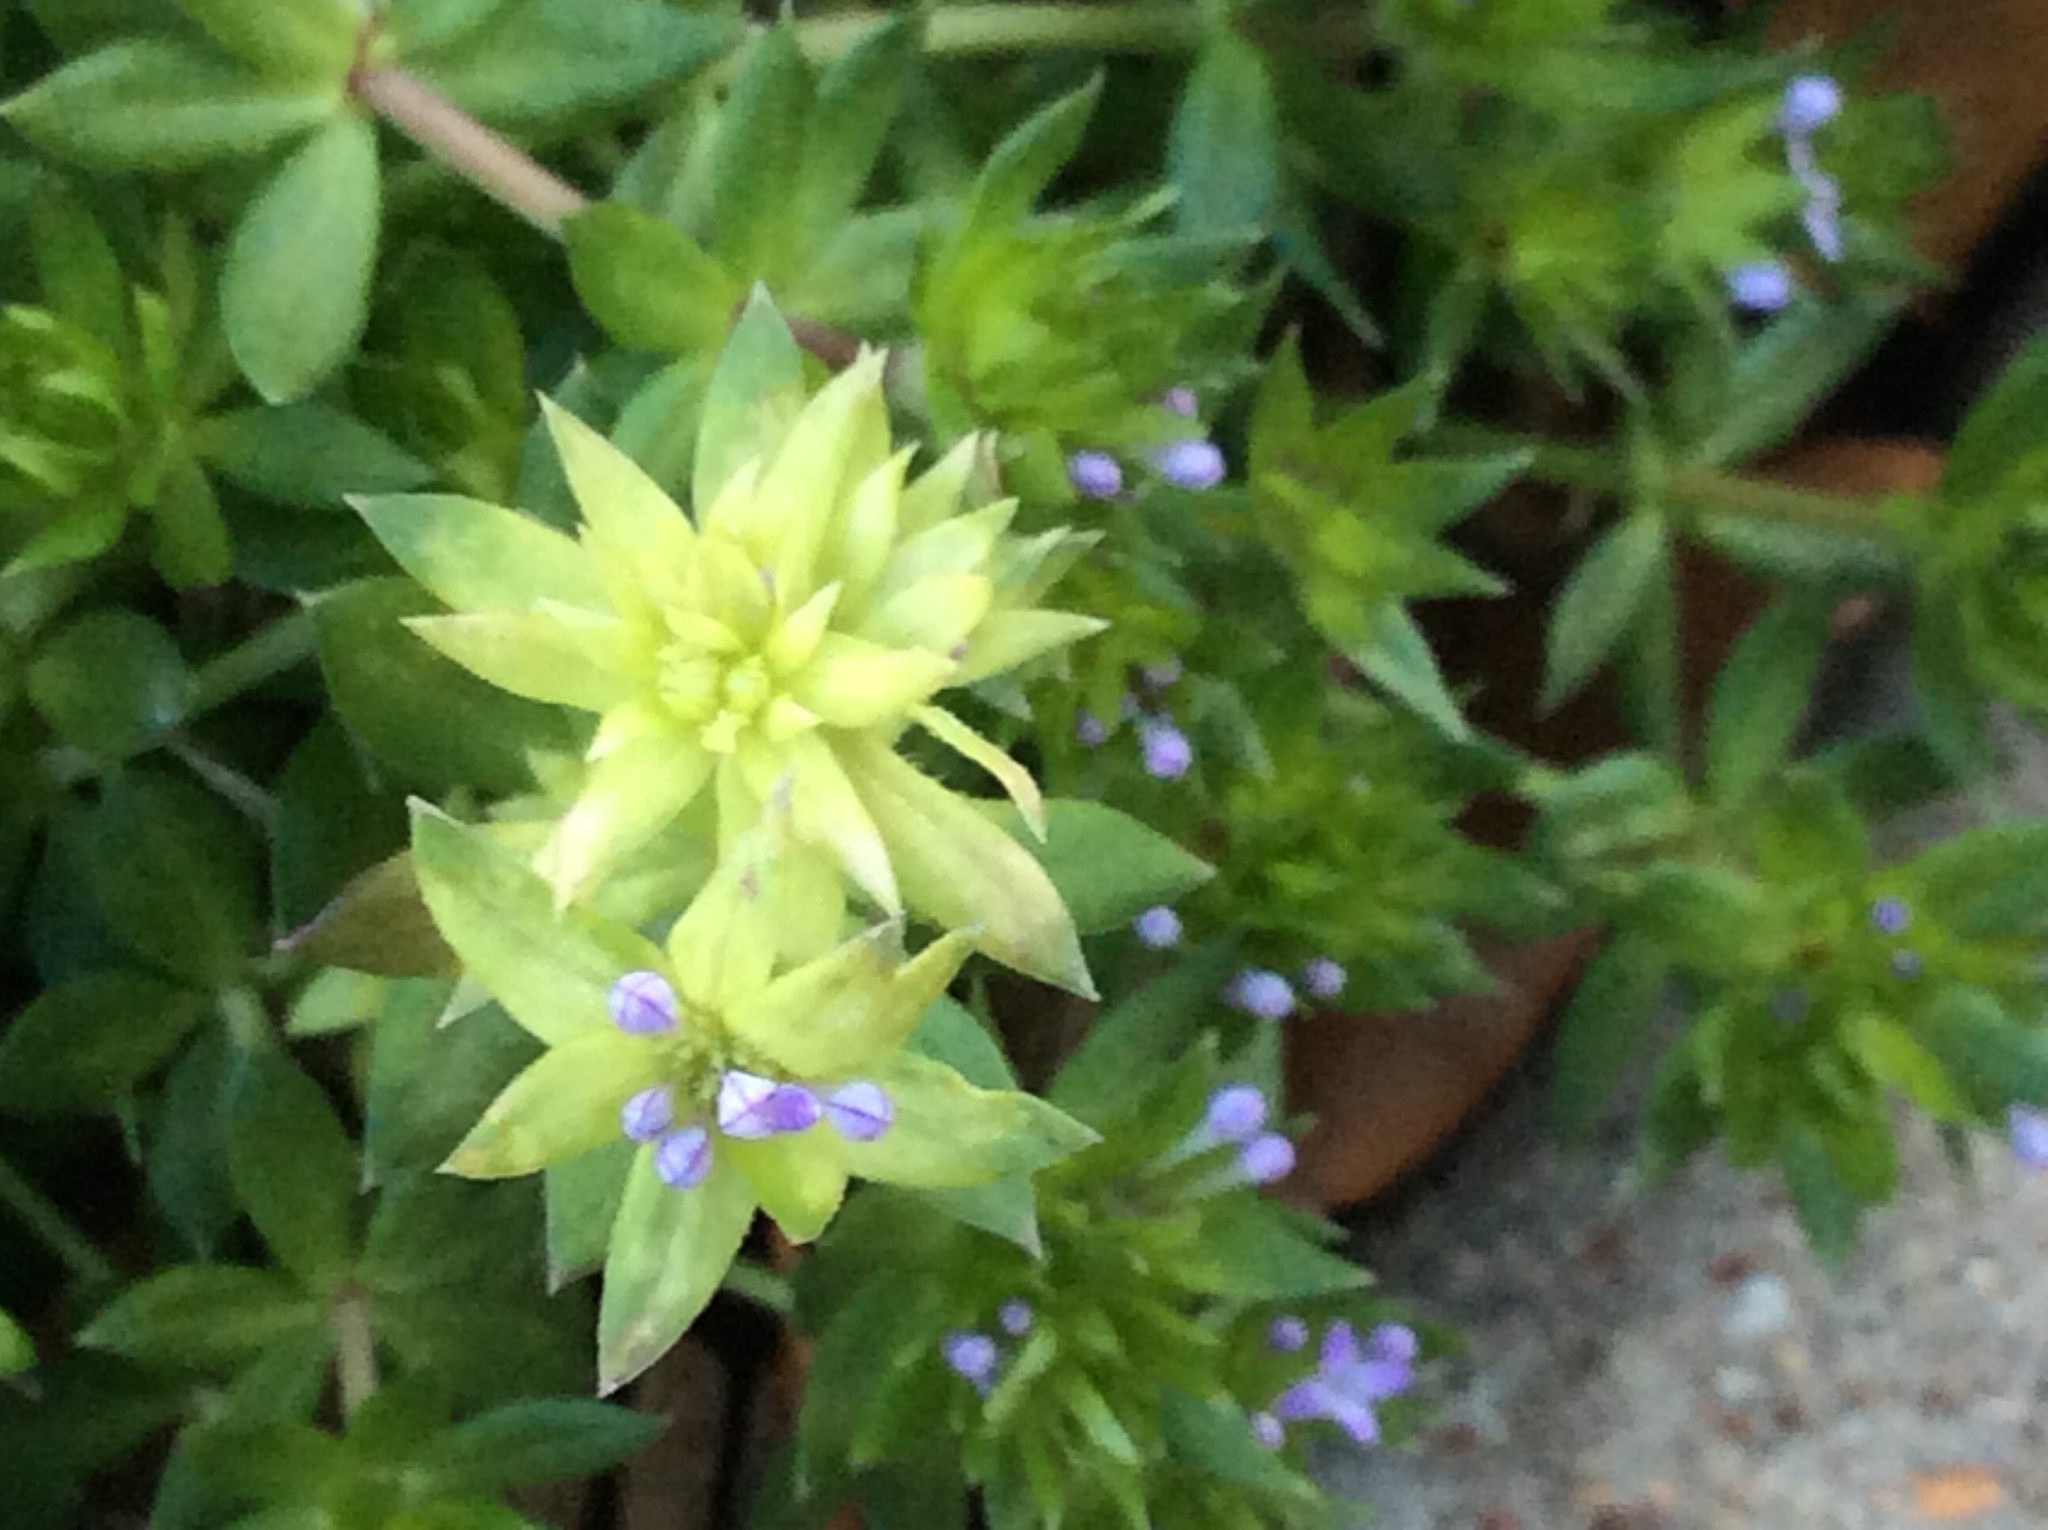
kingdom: Plantae
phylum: Tracheophyta
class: Magnoliopsida
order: Gentianales
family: Rubiaceae
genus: Sherardia
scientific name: Sherardia arvensis
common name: Field madder
